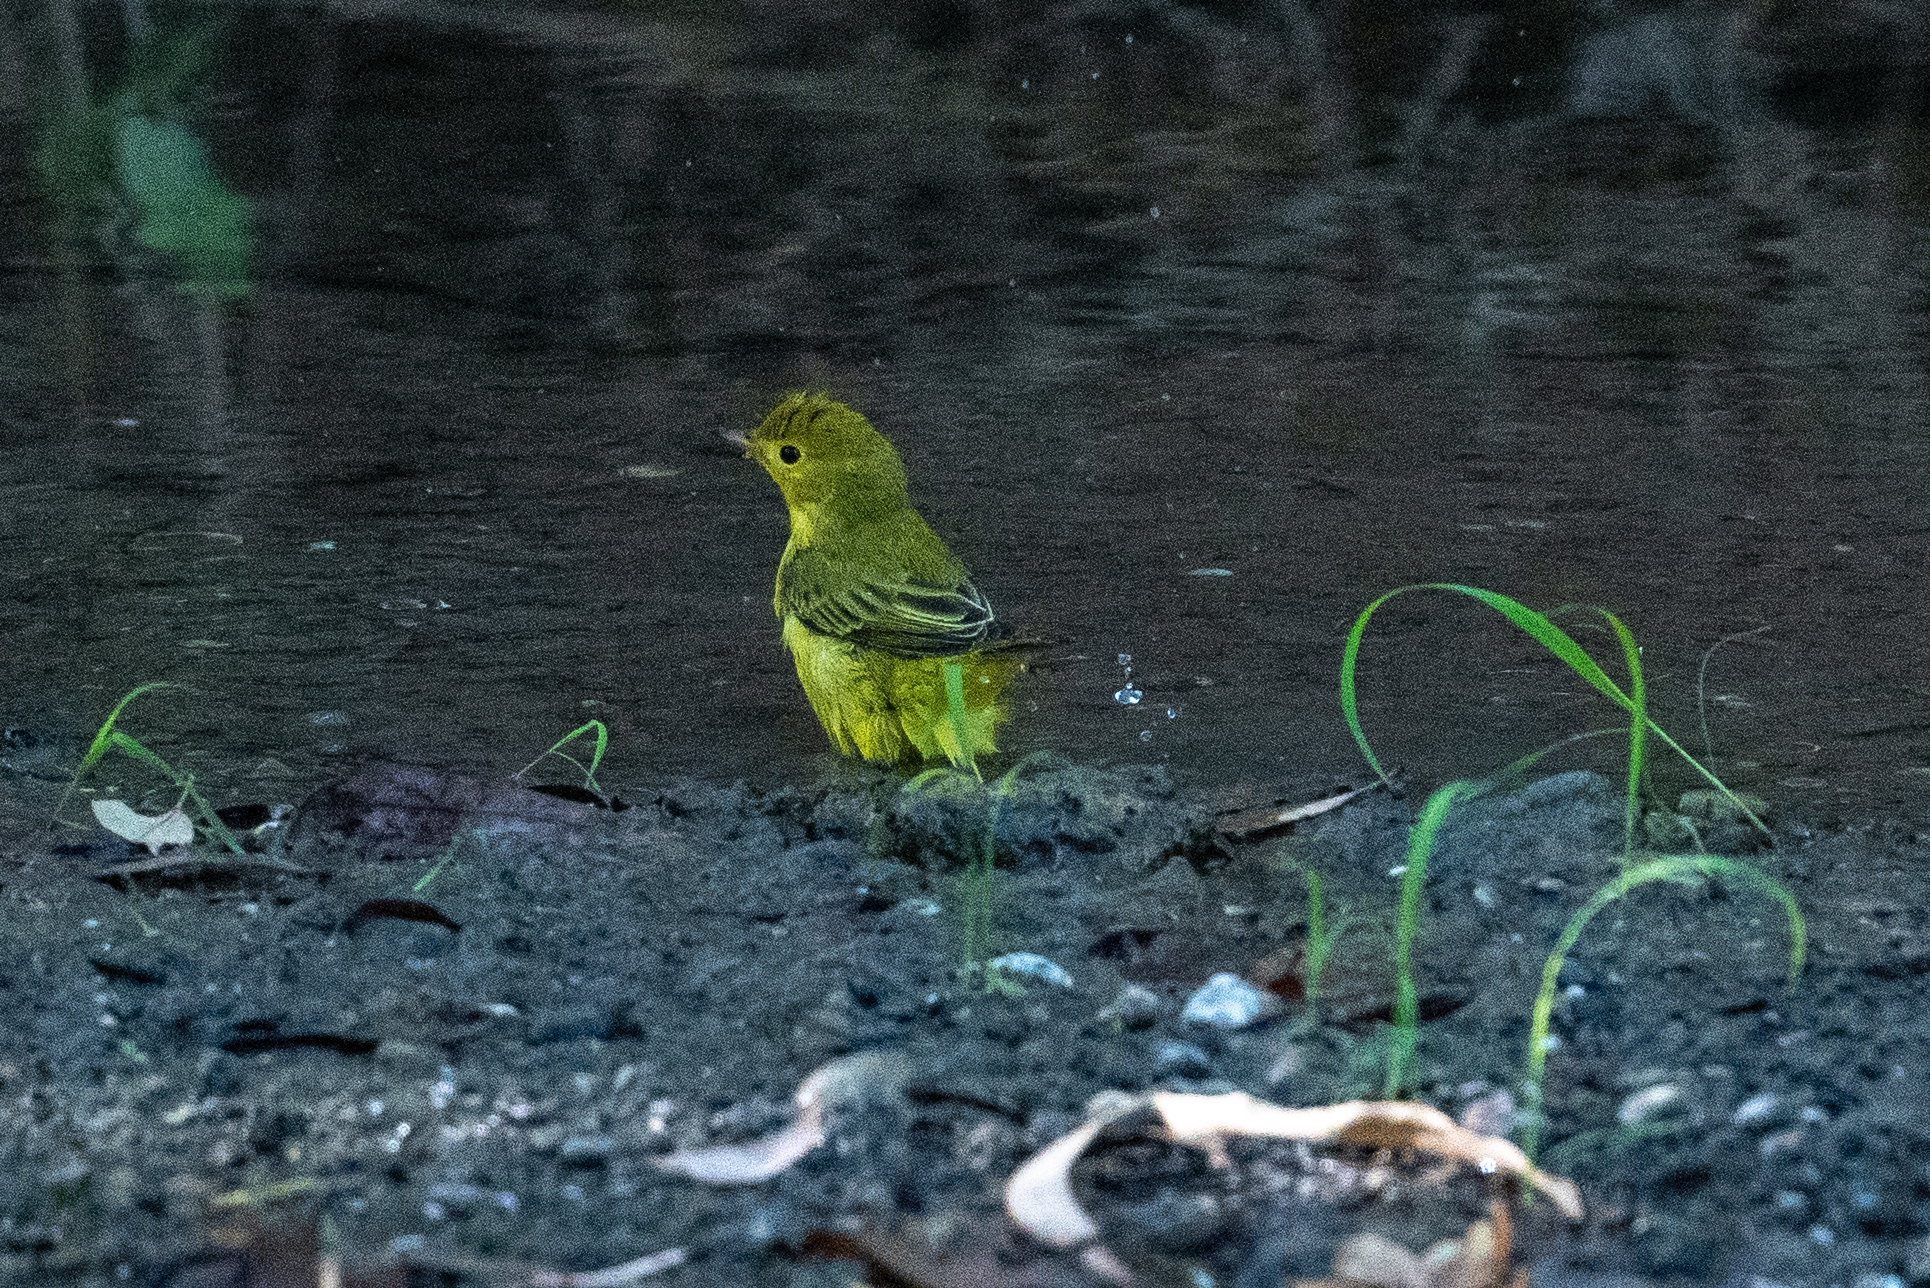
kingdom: Animalia
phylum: Chordata
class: Aves
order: Passeriformes
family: Parulidae
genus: Setophaga
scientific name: Setophaga petechia
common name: Yellow warbler
